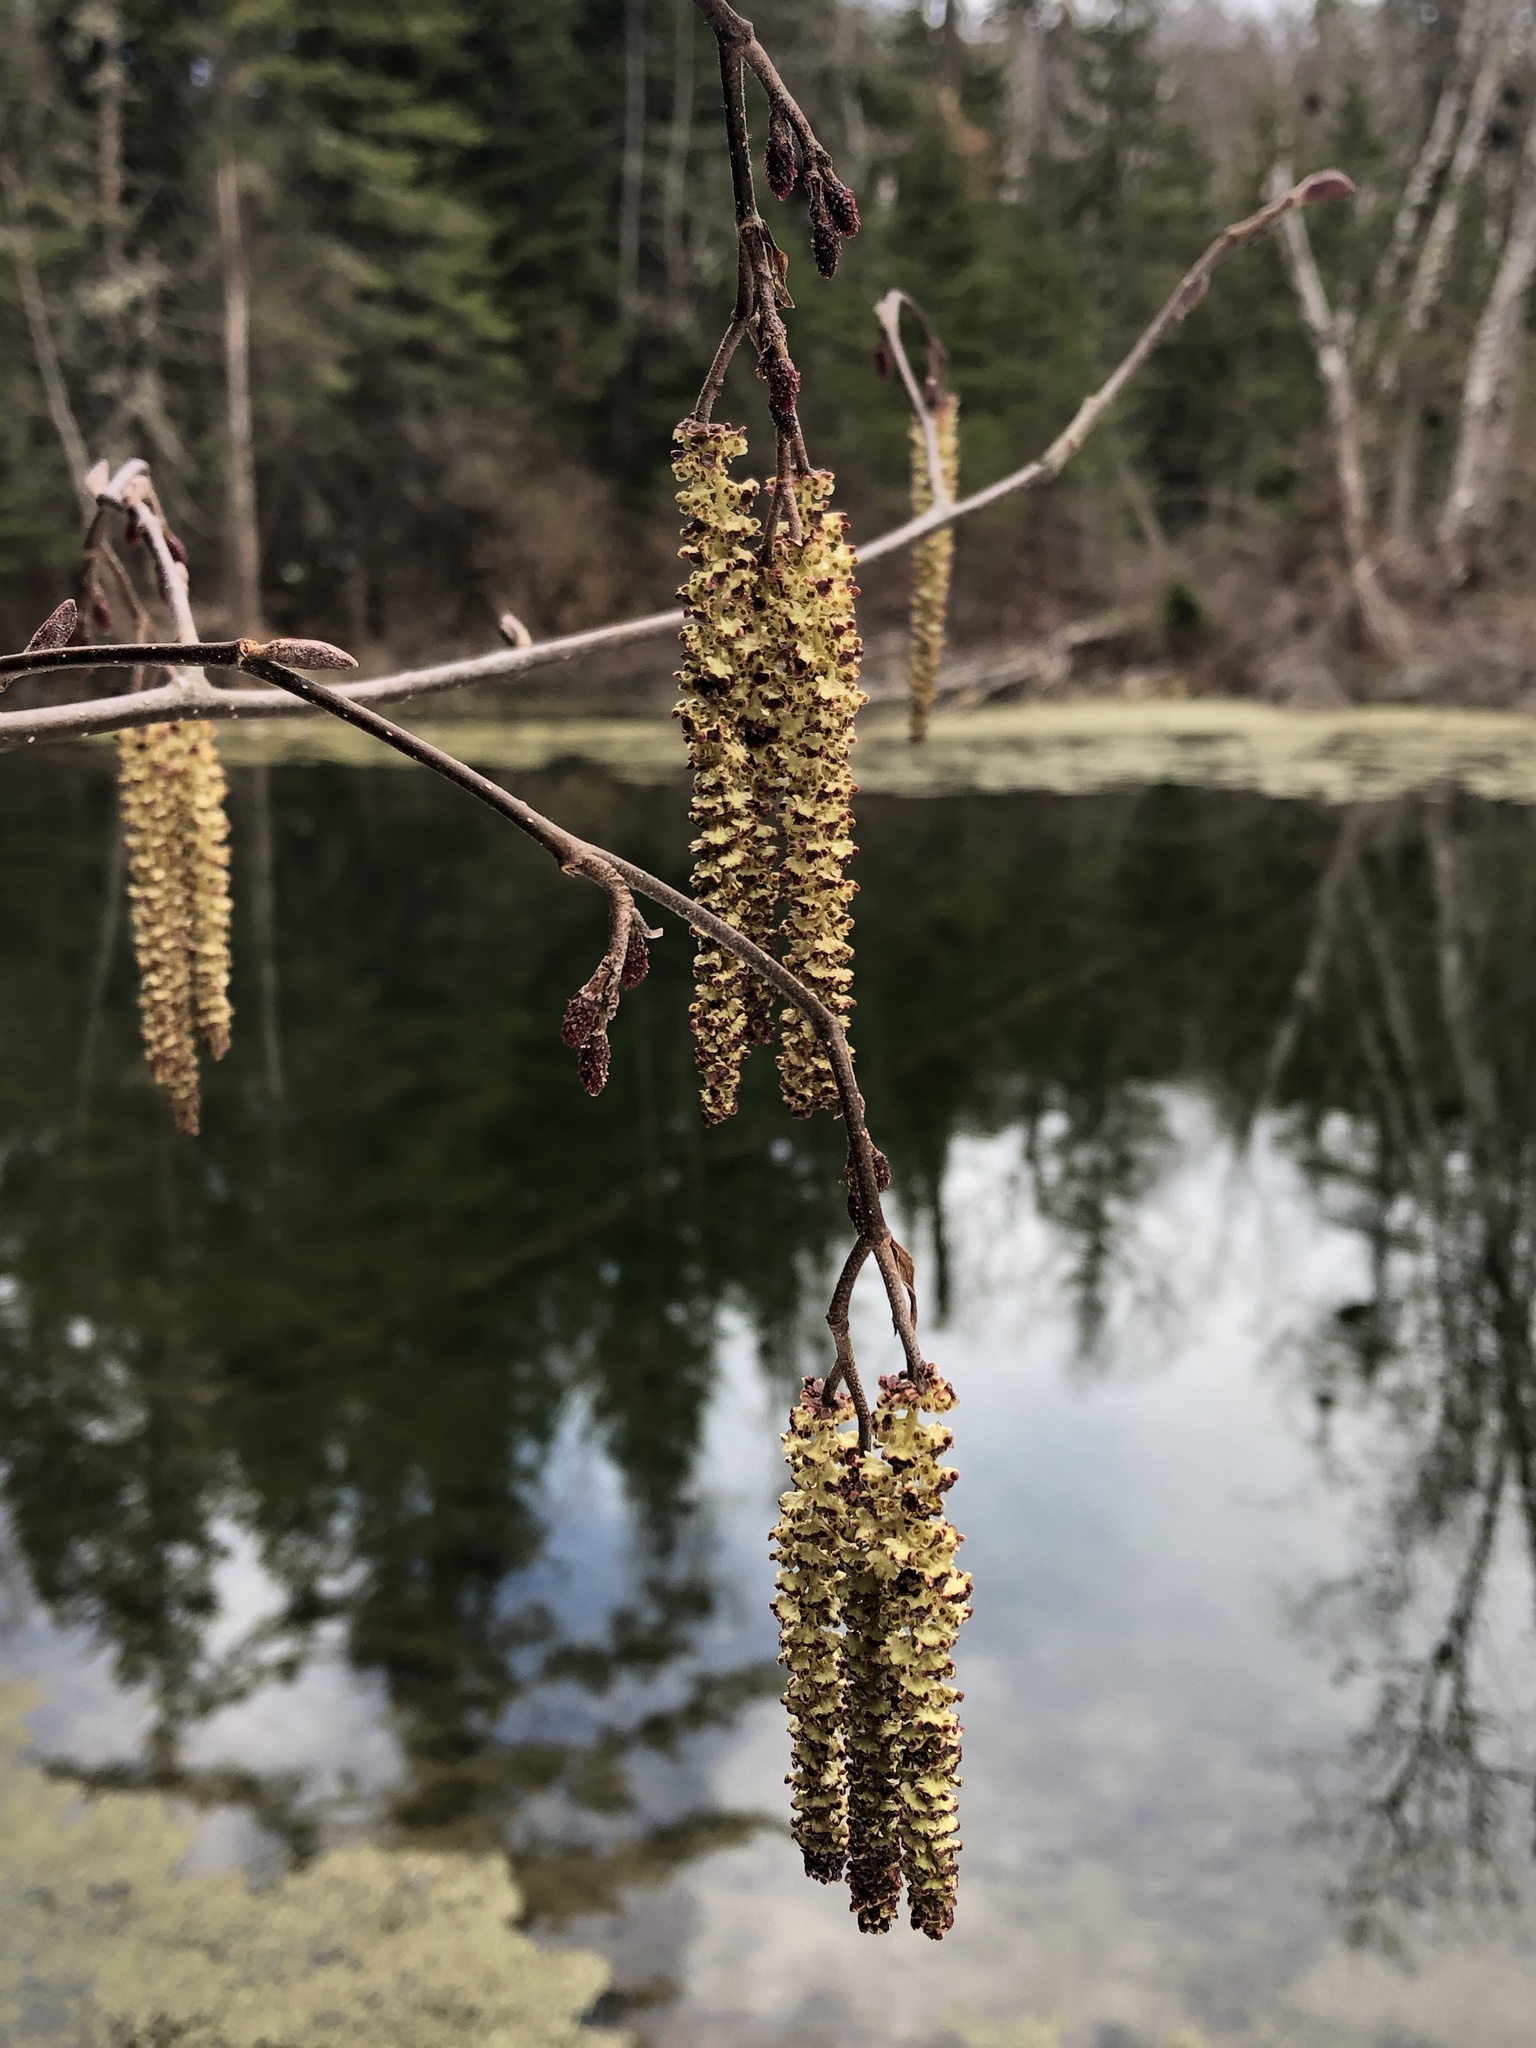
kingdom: Plantae
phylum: Tracheophyta
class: Magnoliopsida
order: Fagales
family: Betulaceae
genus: Alnus
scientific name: Alnus incana
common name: Grey alder
